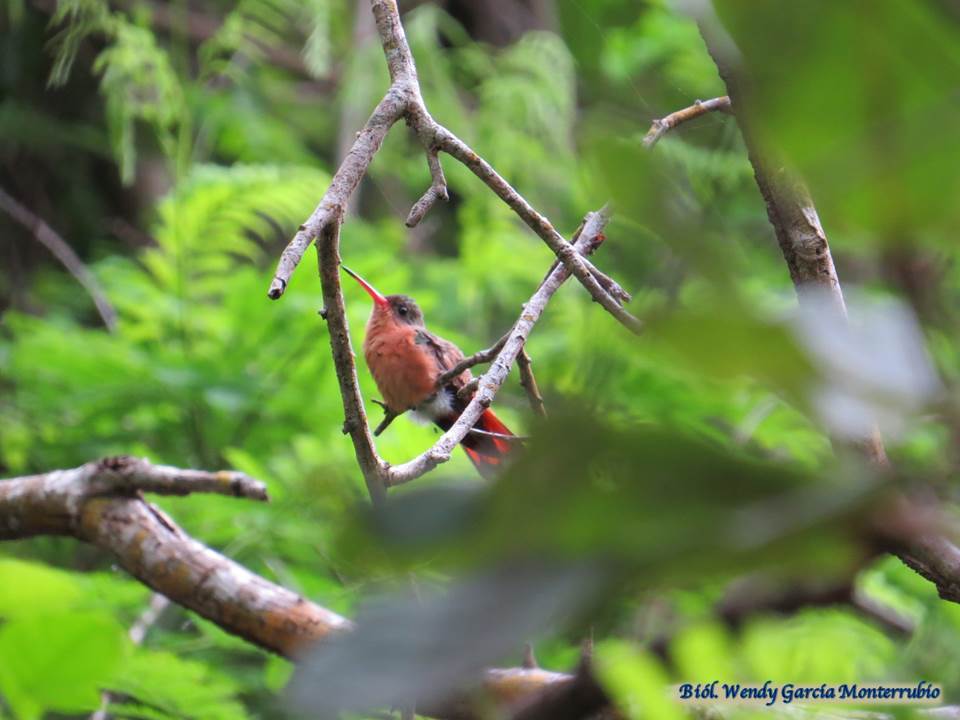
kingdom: Animalia
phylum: Chordata
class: Aves
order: Apodiformes
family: Trochilidae
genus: Amazilia
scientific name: Amazilia rutila
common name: Cinnamon hummingbird
